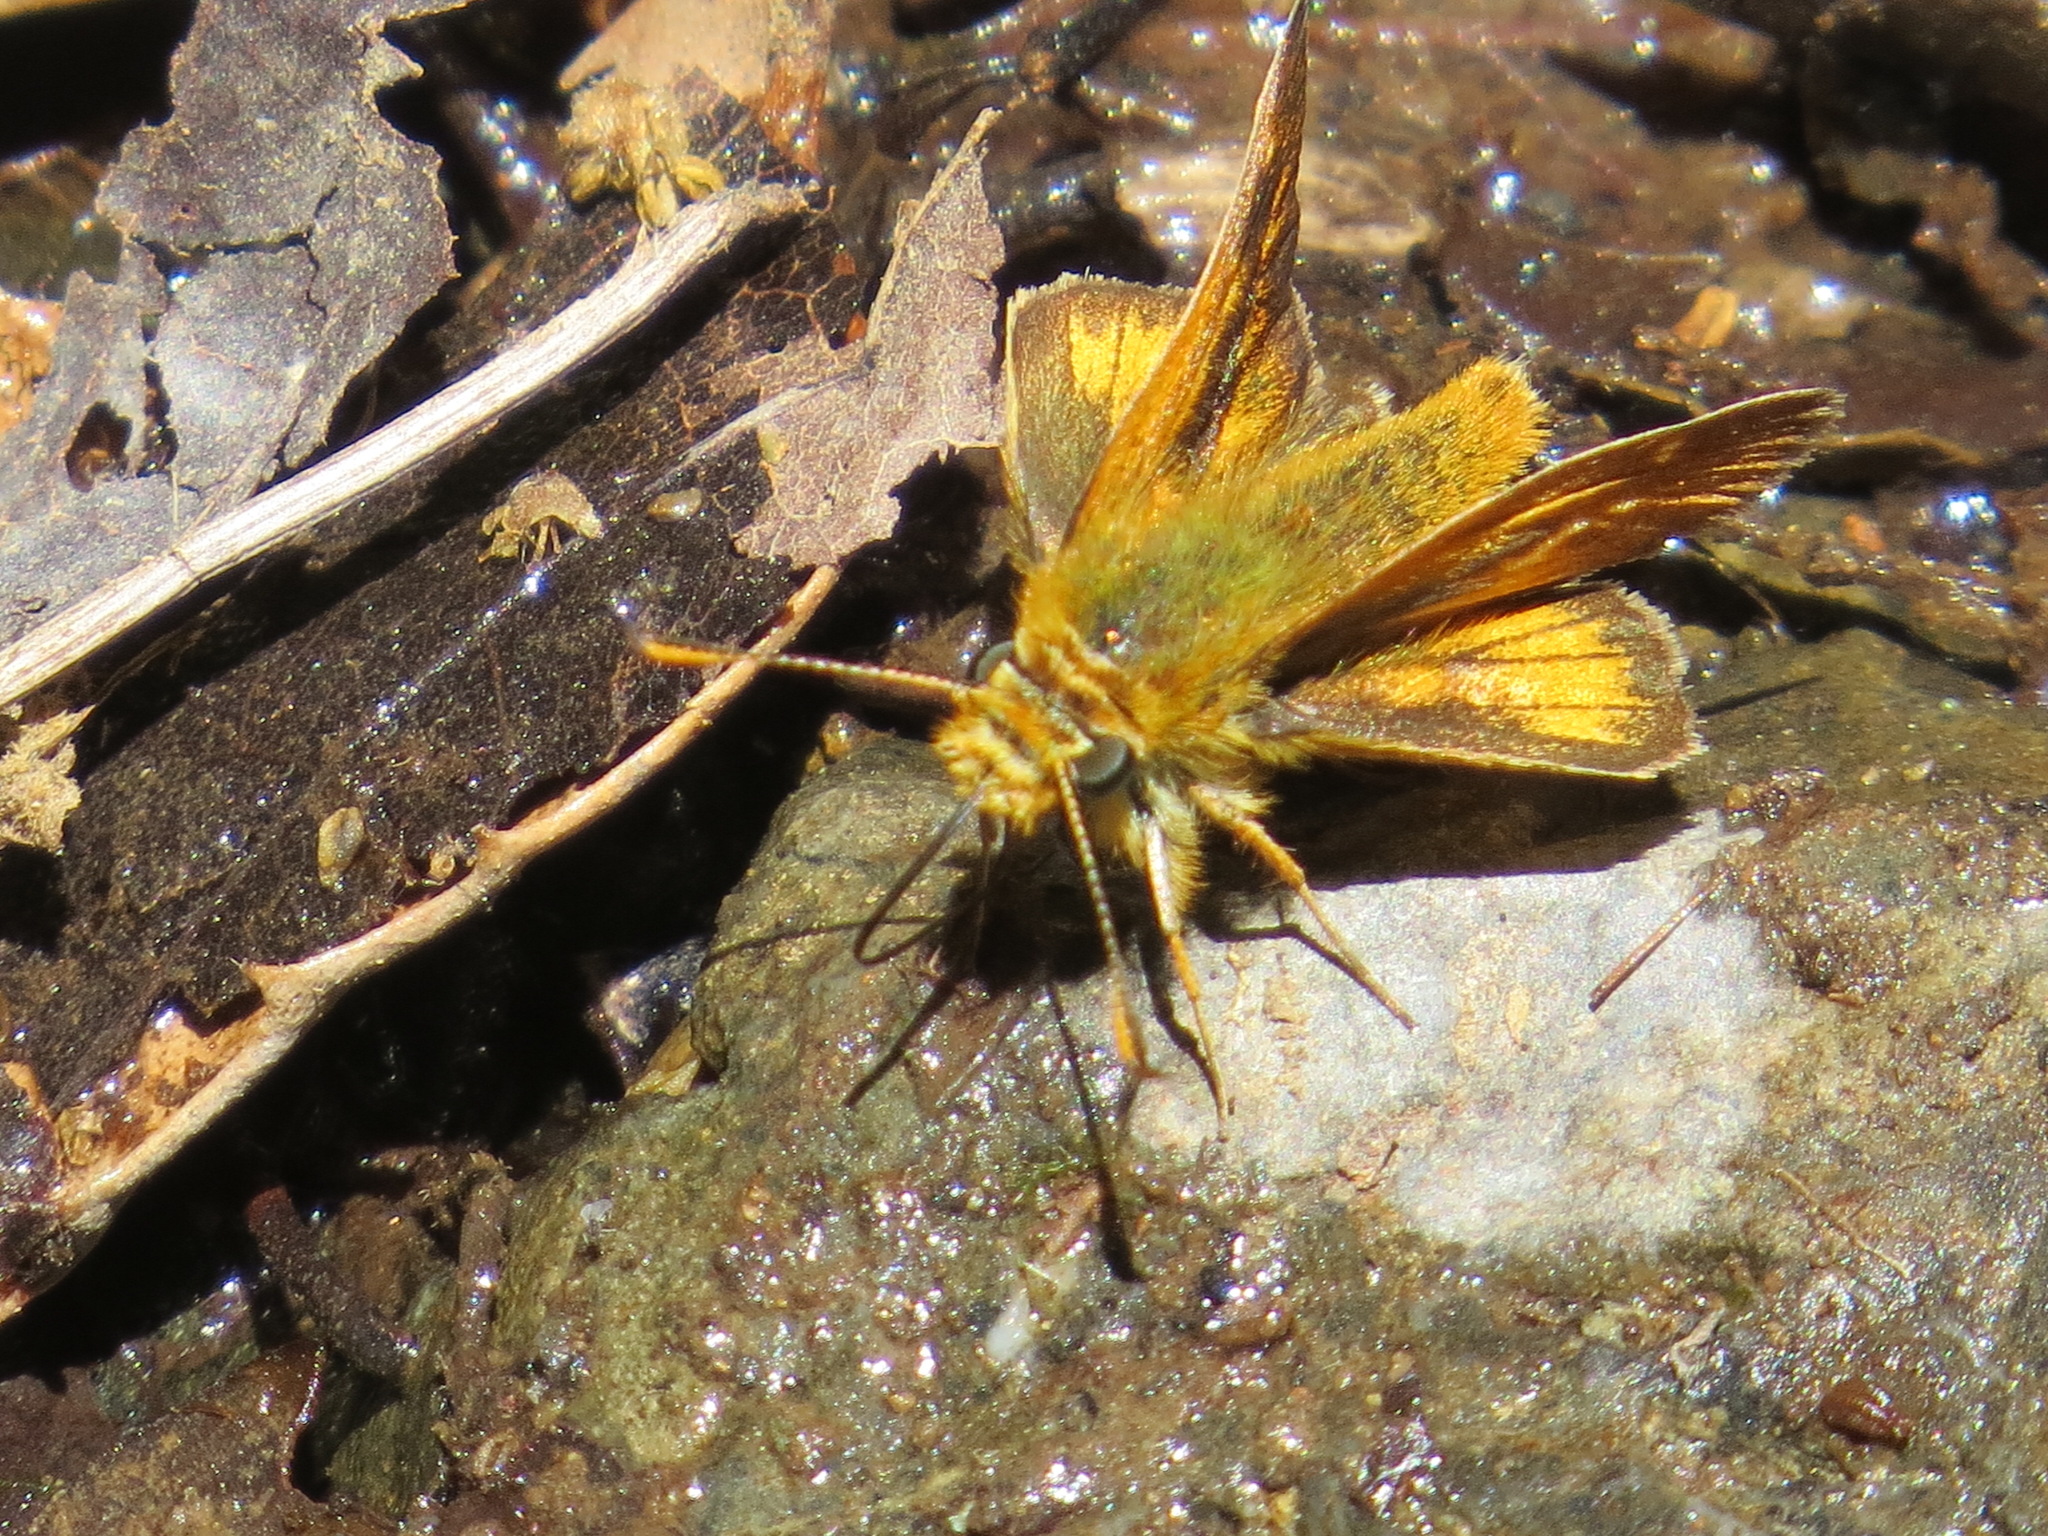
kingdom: Animalia
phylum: Arthropoda
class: Insecta
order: Lepidoptera
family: Hesperiidae
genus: Ochlodes
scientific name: Ochlodes agricola
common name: Rural skipper
